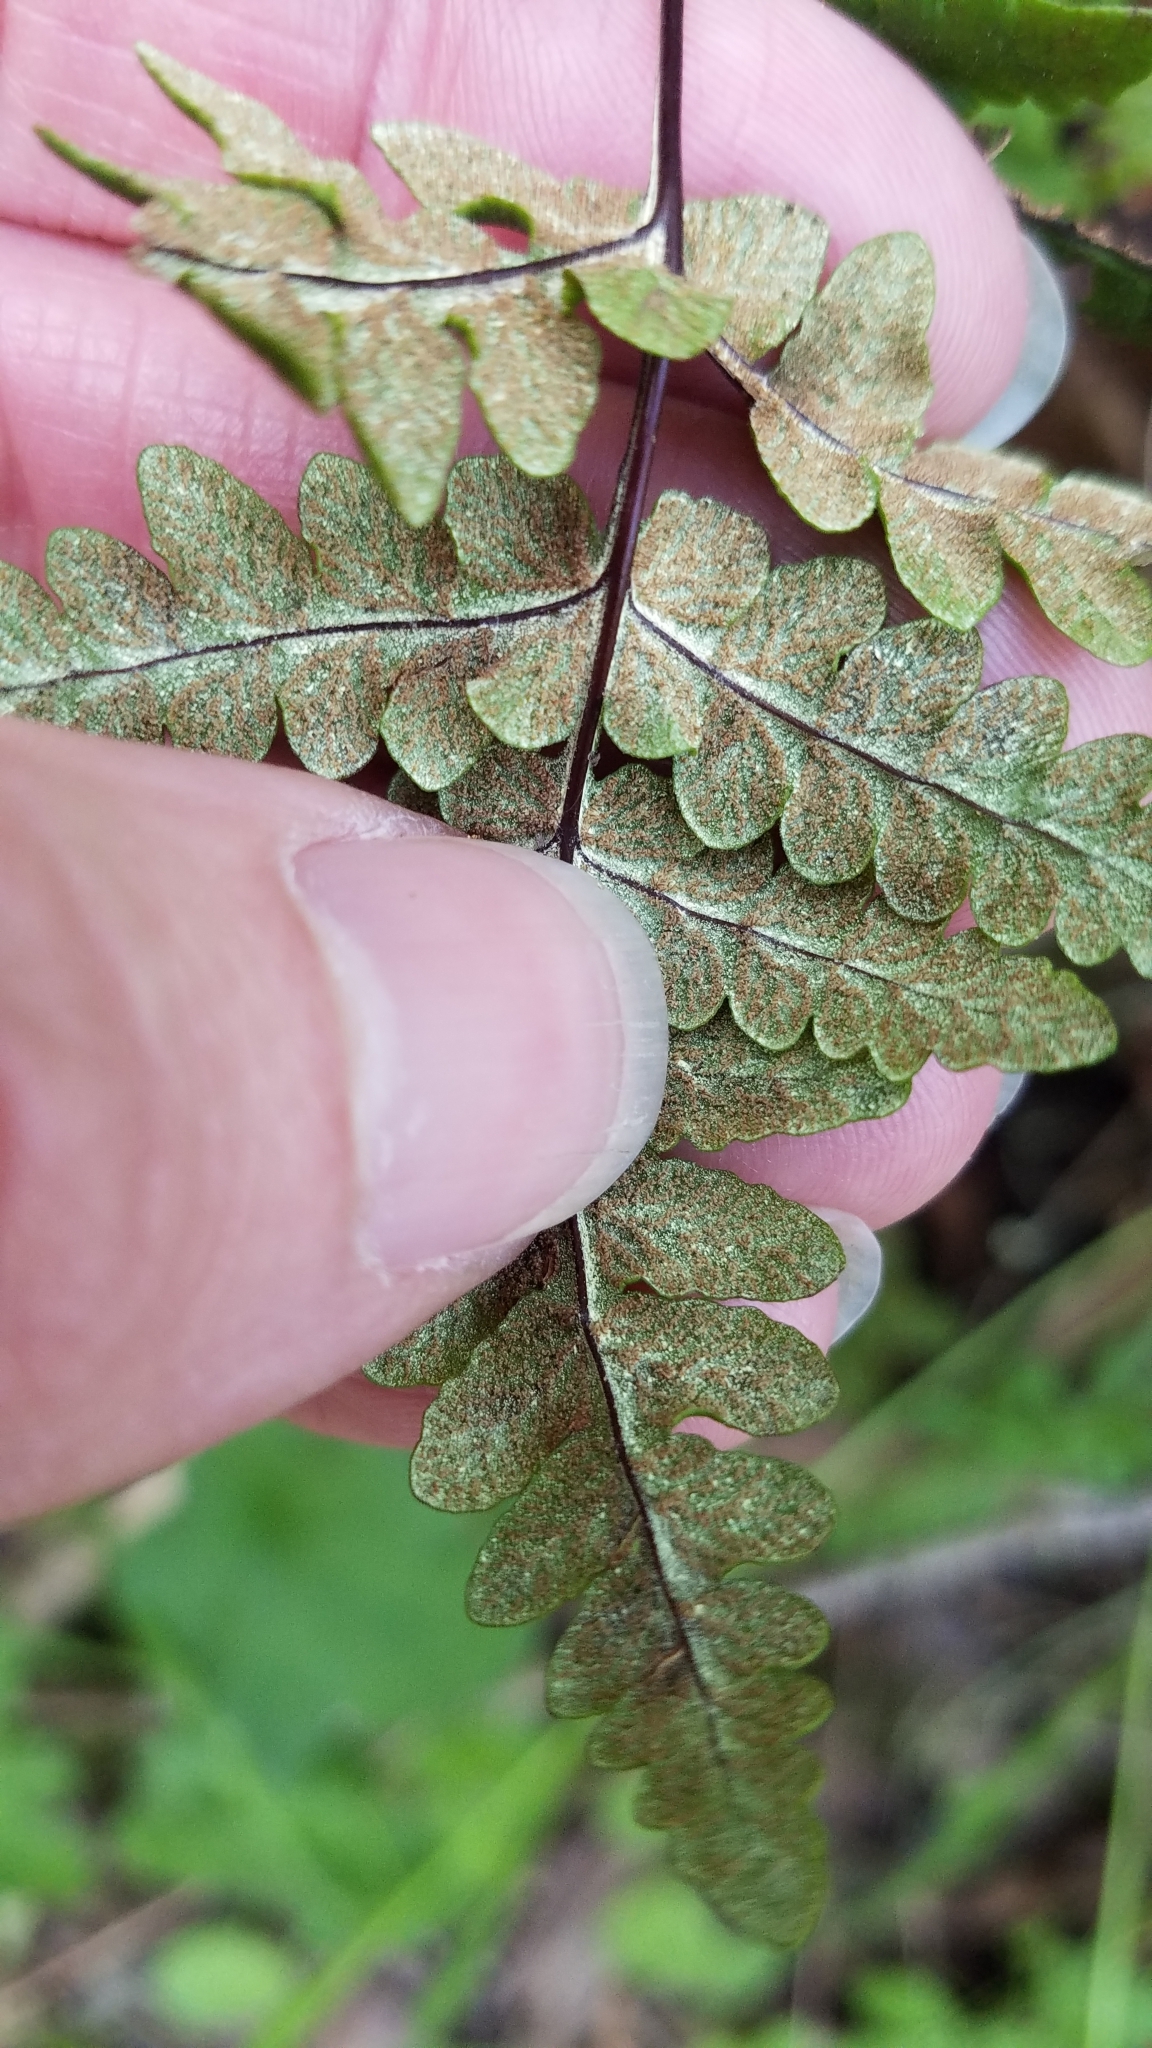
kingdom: Plantae
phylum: Tracheophyta
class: Polypodiopsida
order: Polypodiales
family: Pteridaceae
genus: Pentagramma
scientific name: Pentagramma triangularis
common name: Gold fern
